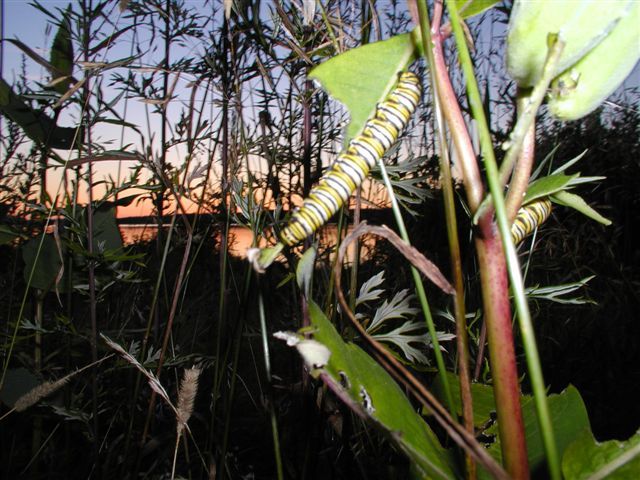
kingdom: Animalia
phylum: Arthropoda
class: Insecta
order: Lepidoptera
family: Nymphalidae
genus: Danaus
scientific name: Danaus plexippus
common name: Monarch
